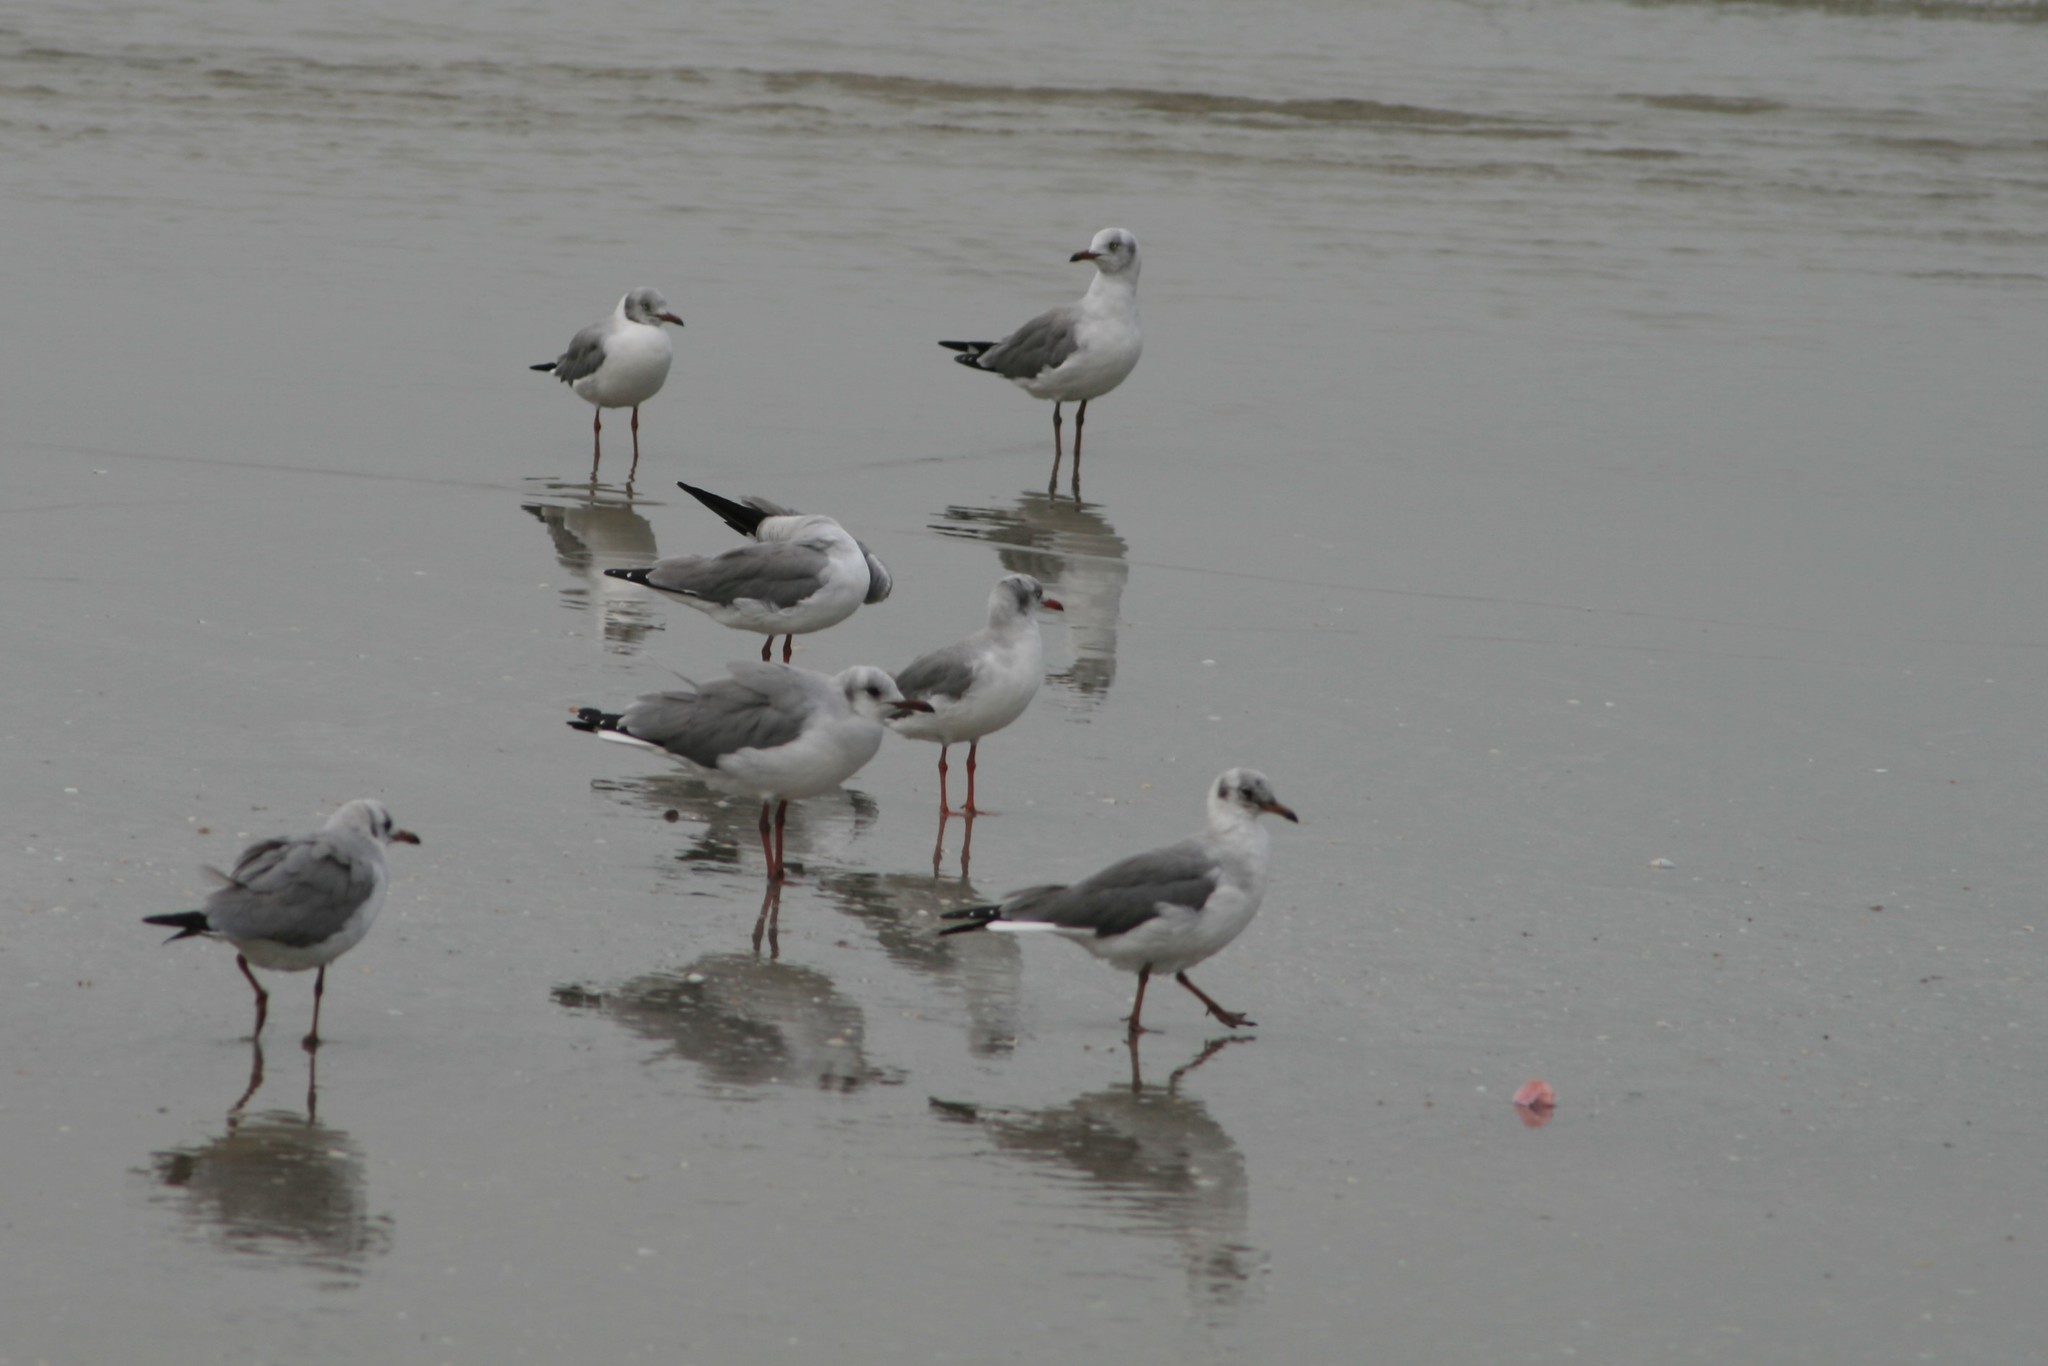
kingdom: Animalia
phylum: Chordata
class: Aves
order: Charadriiformes
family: Laridae
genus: Chroicocephalus
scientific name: Chroicocephalus cirrocephalus
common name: Grey-headed gull
